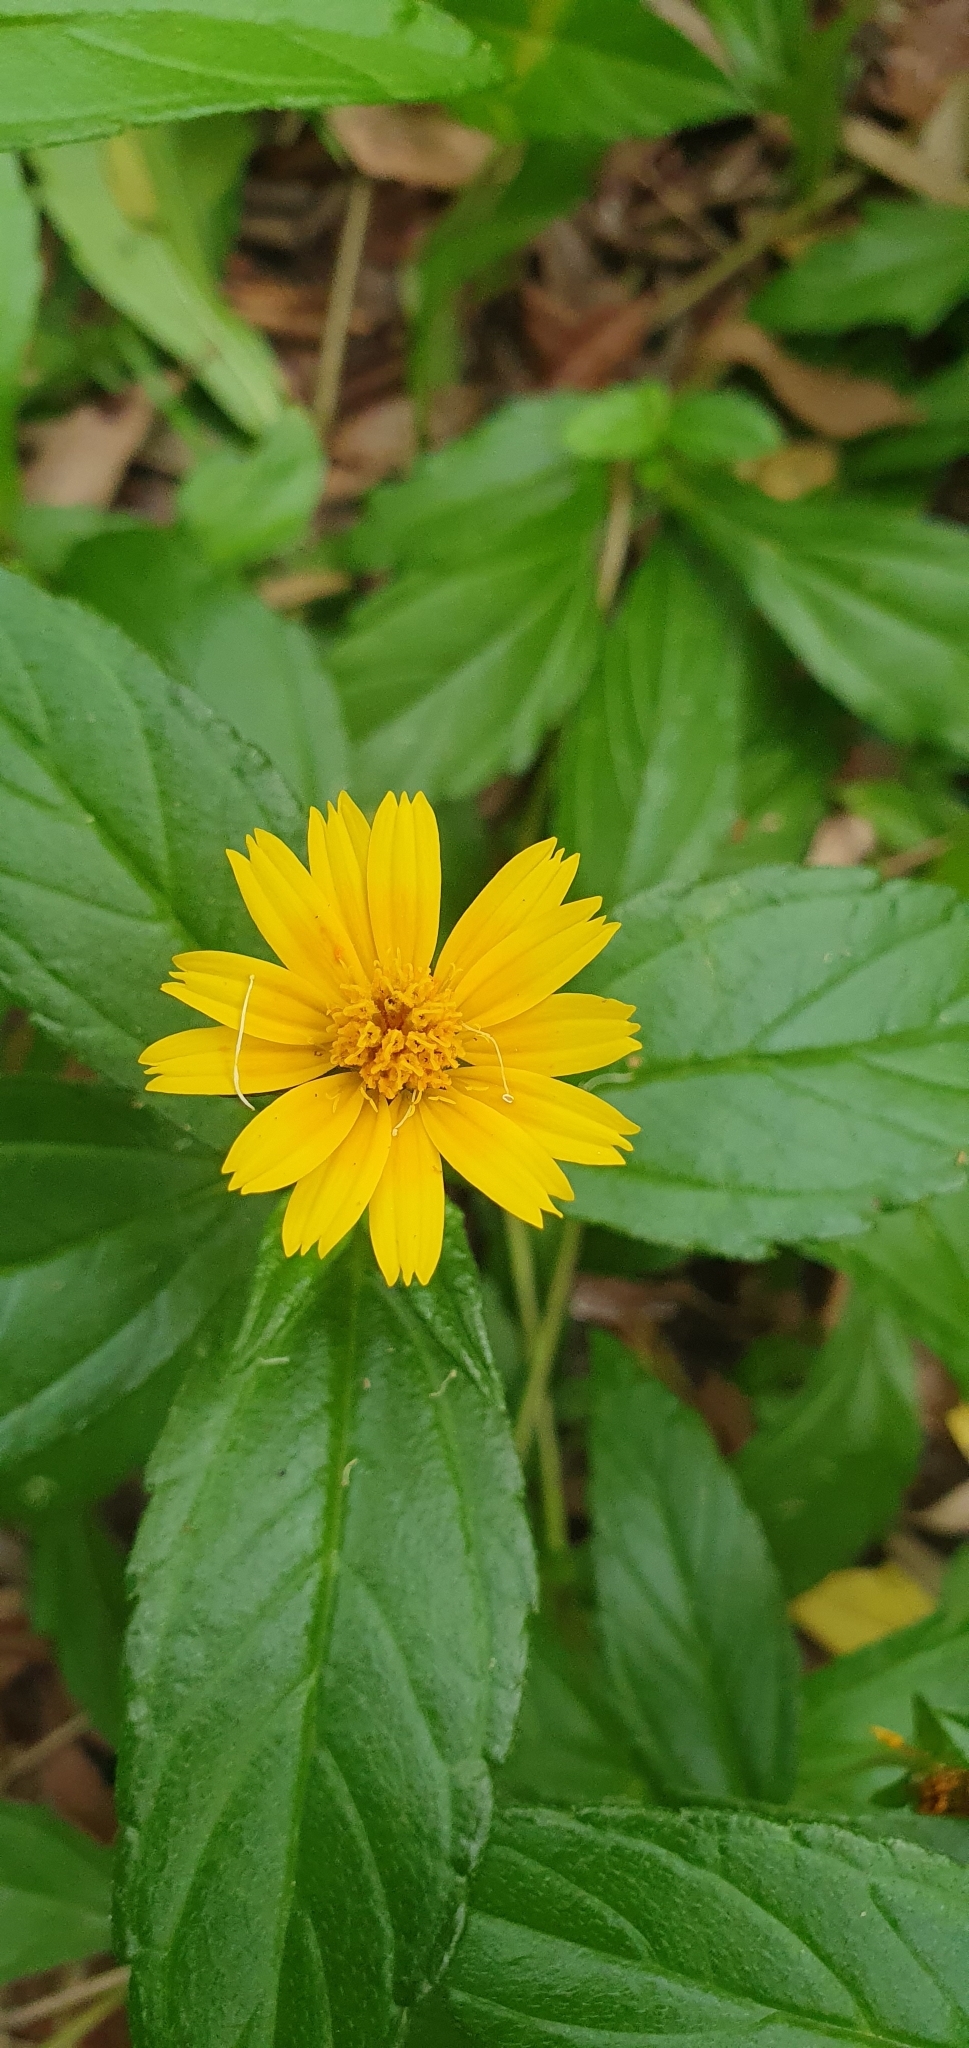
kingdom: Plantae
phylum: Tracheophyta
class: Magnoliopsida
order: Asterales
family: Asteraceae
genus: Sphagneticola
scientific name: Sphagneticola trilobata
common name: Bay biscayne creeping-oxeye
